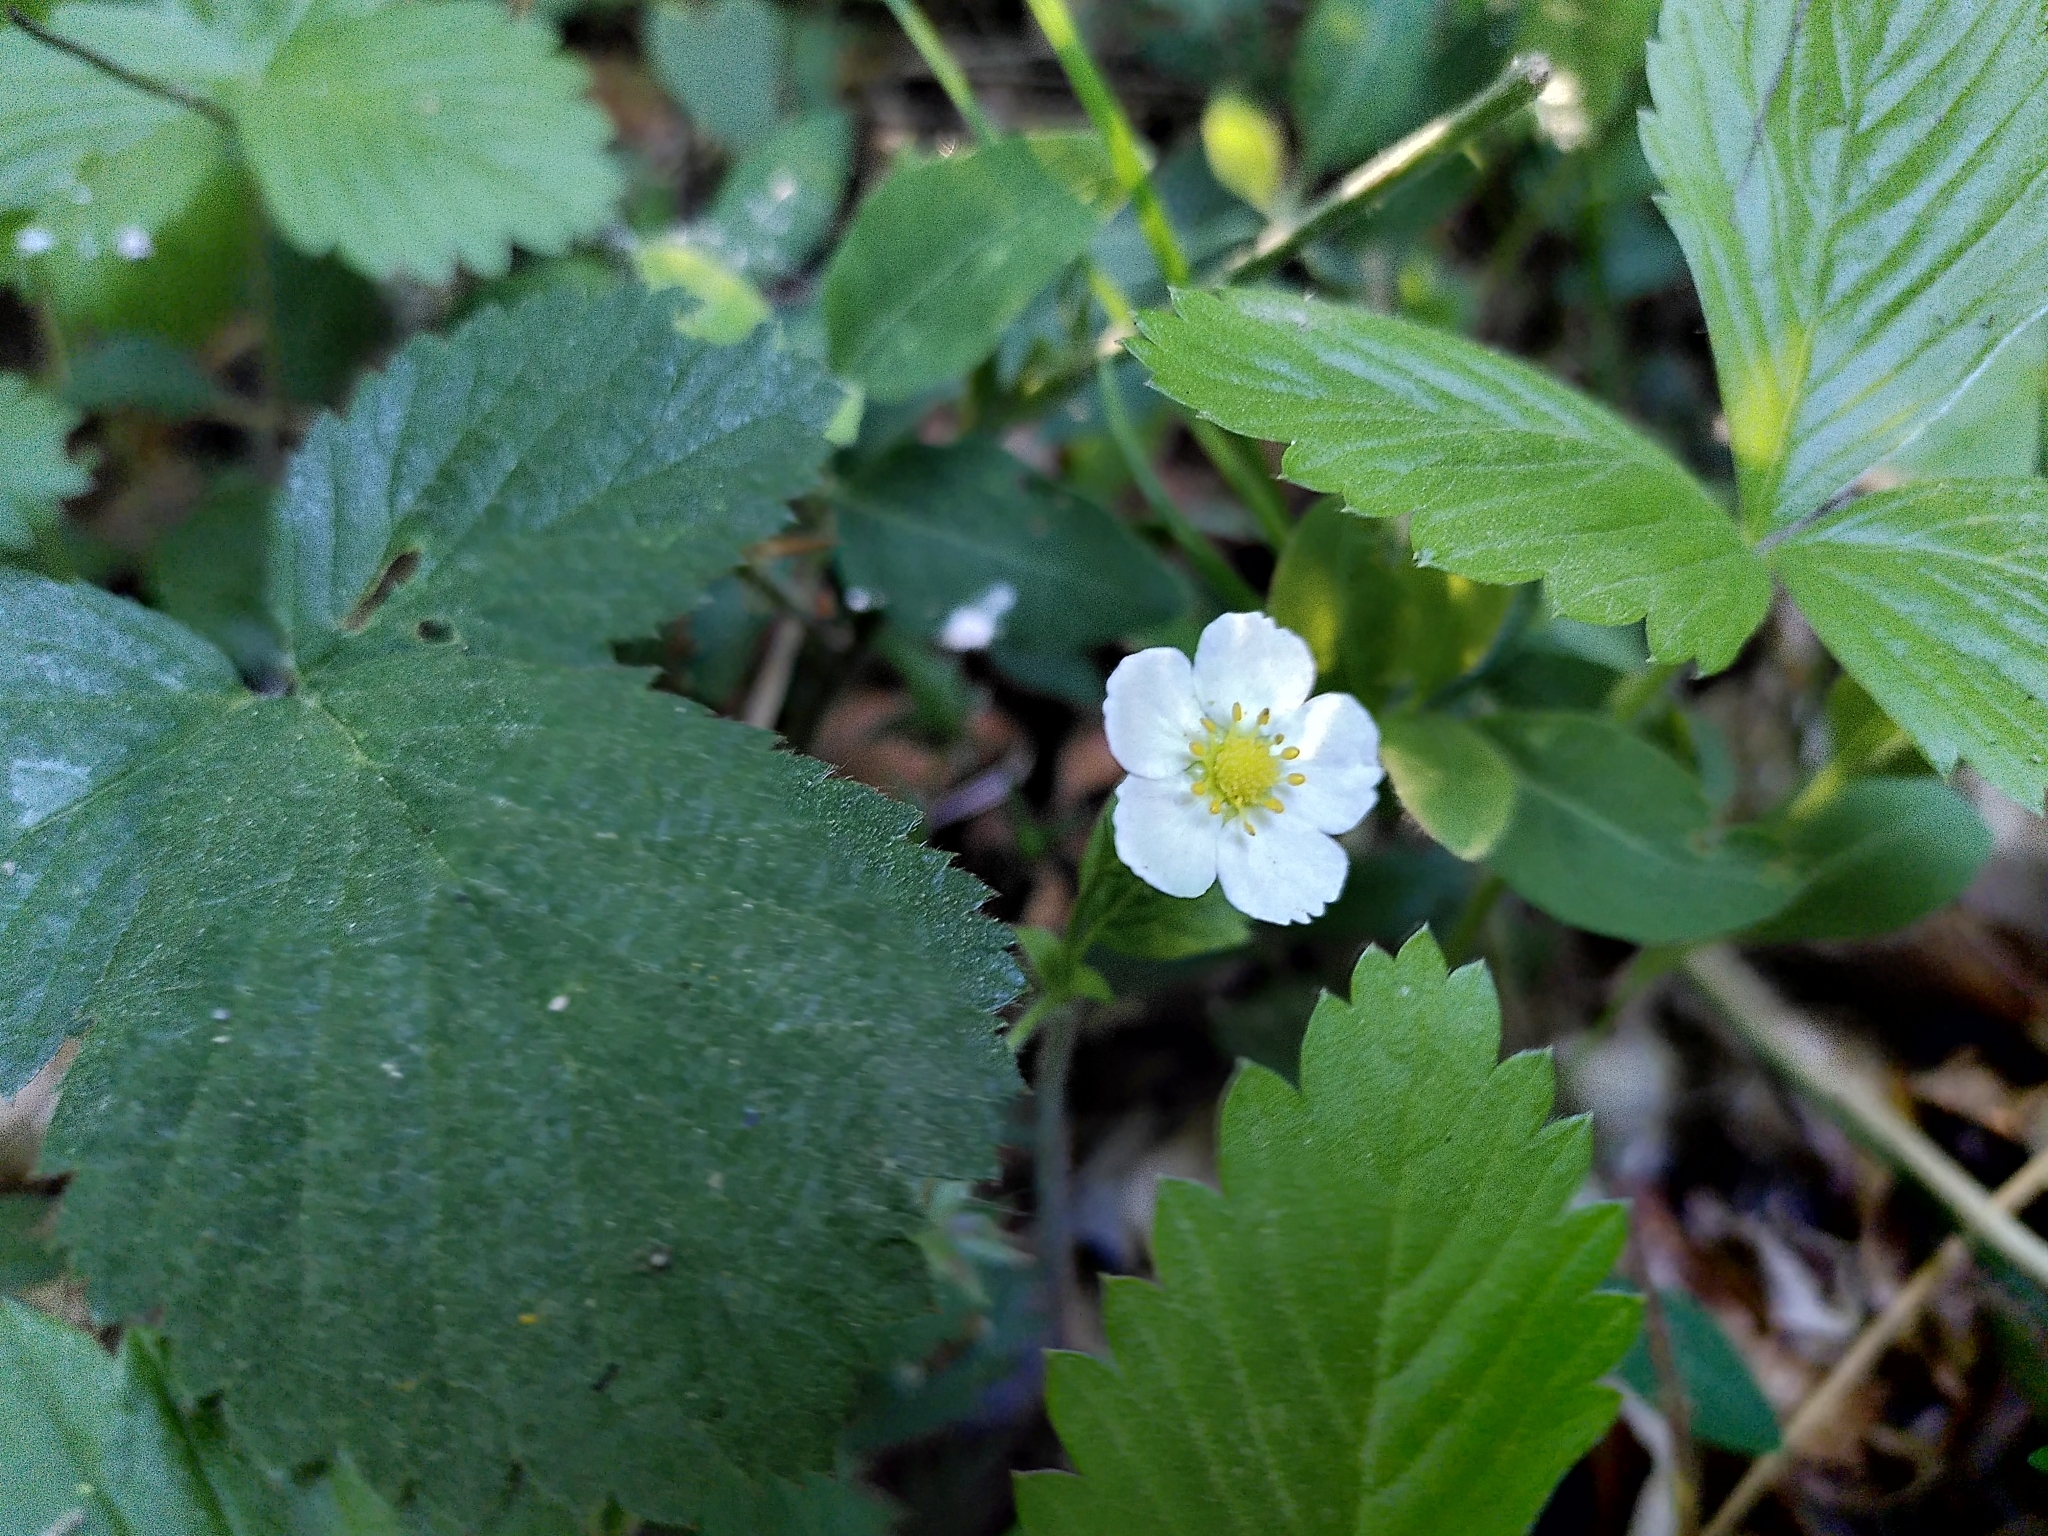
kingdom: Plantae
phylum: Tracheophyta
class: Magnoliopsida
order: Rosales
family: Rosaceae
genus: Fragaria
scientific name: Fragaria vesca
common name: Wild strawberry
